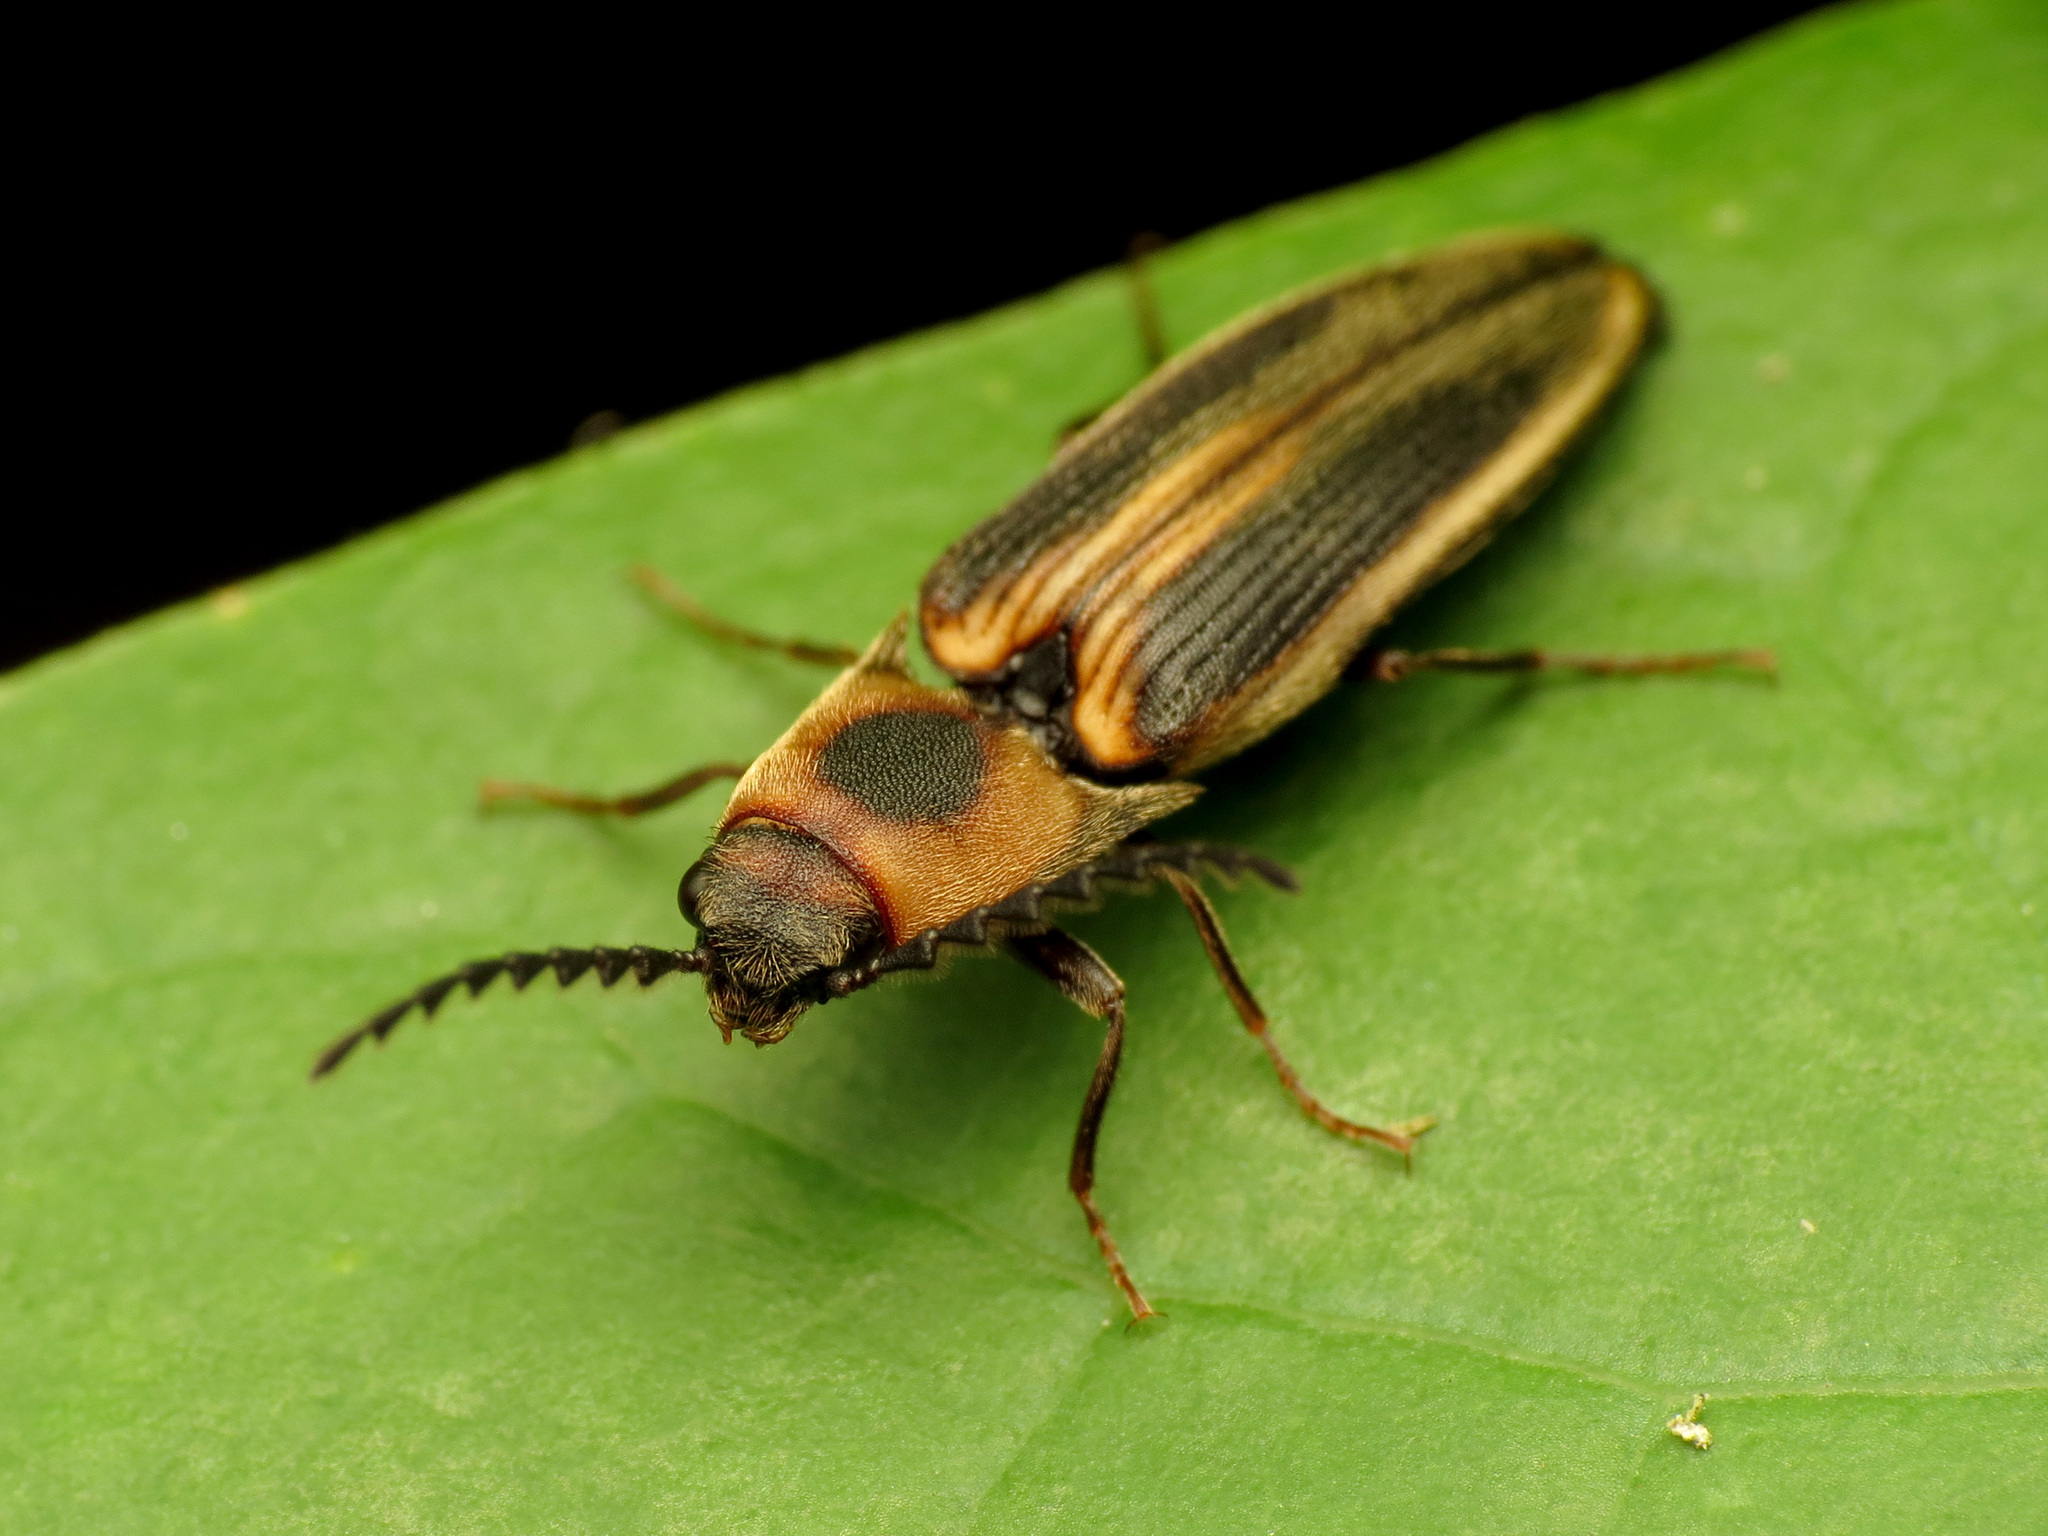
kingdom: Animalia
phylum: Arthropoda
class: Insecta
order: Coleoptera
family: Elateridae
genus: Megapenthes
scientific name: Megapenthes
